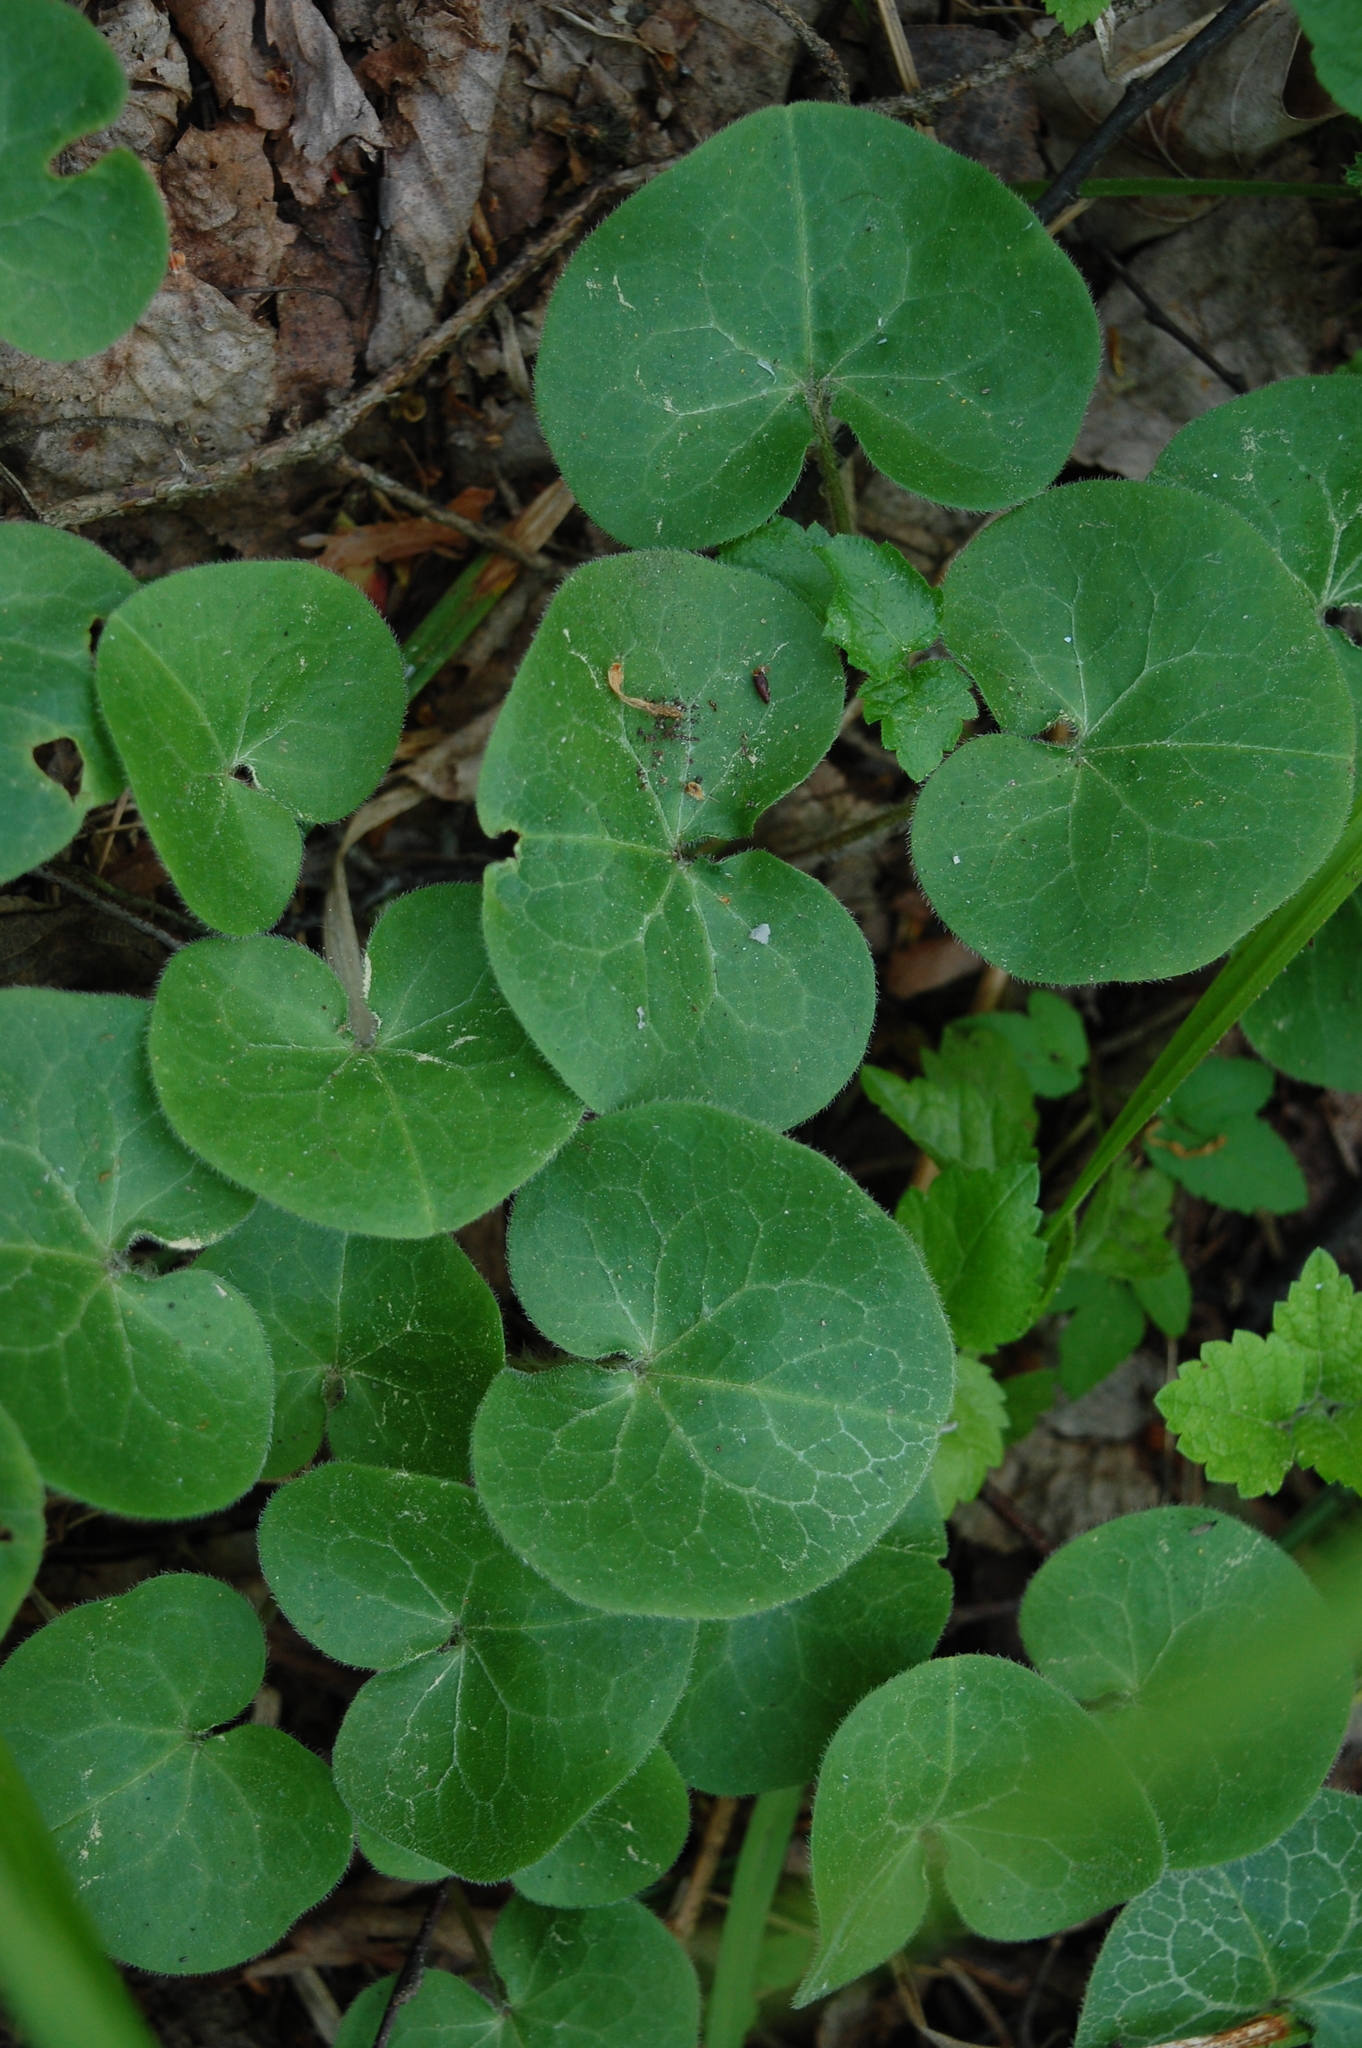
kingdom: Plantae
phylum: Tracheophyta
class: Magnoliopsida
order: Piperales
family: Aristolochiaceae
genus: Asarum
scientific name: Asarum europaeum
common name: Asarabacca
